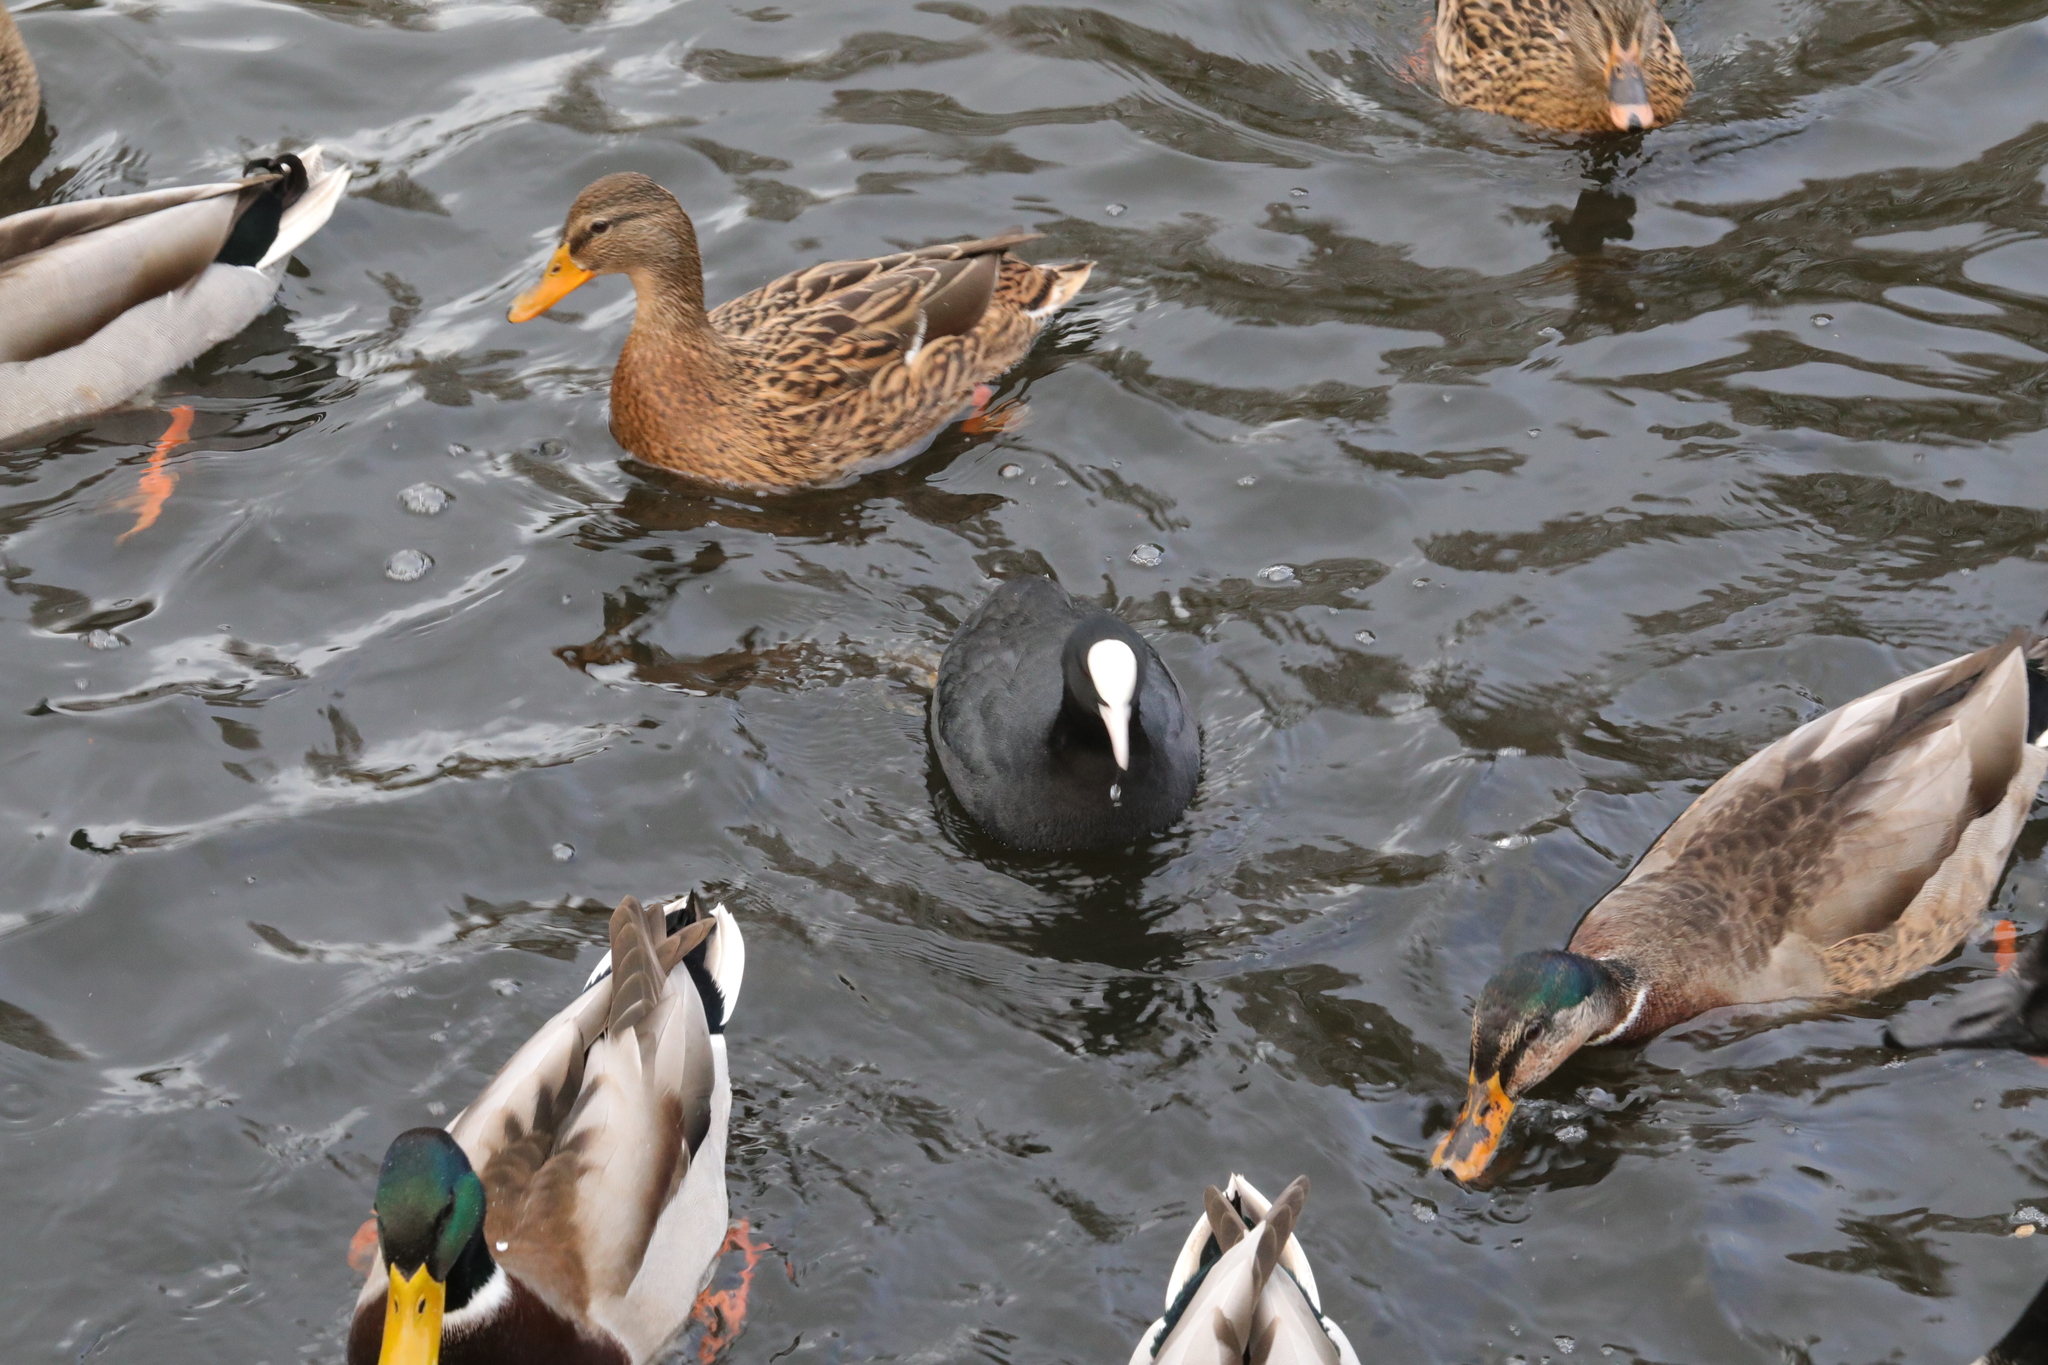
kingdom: Animalia
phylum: Chordata
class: Aves
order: Gruiformes
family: Rallidae
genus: Fulica
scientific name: Fulica atra
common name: Eurasian coot
